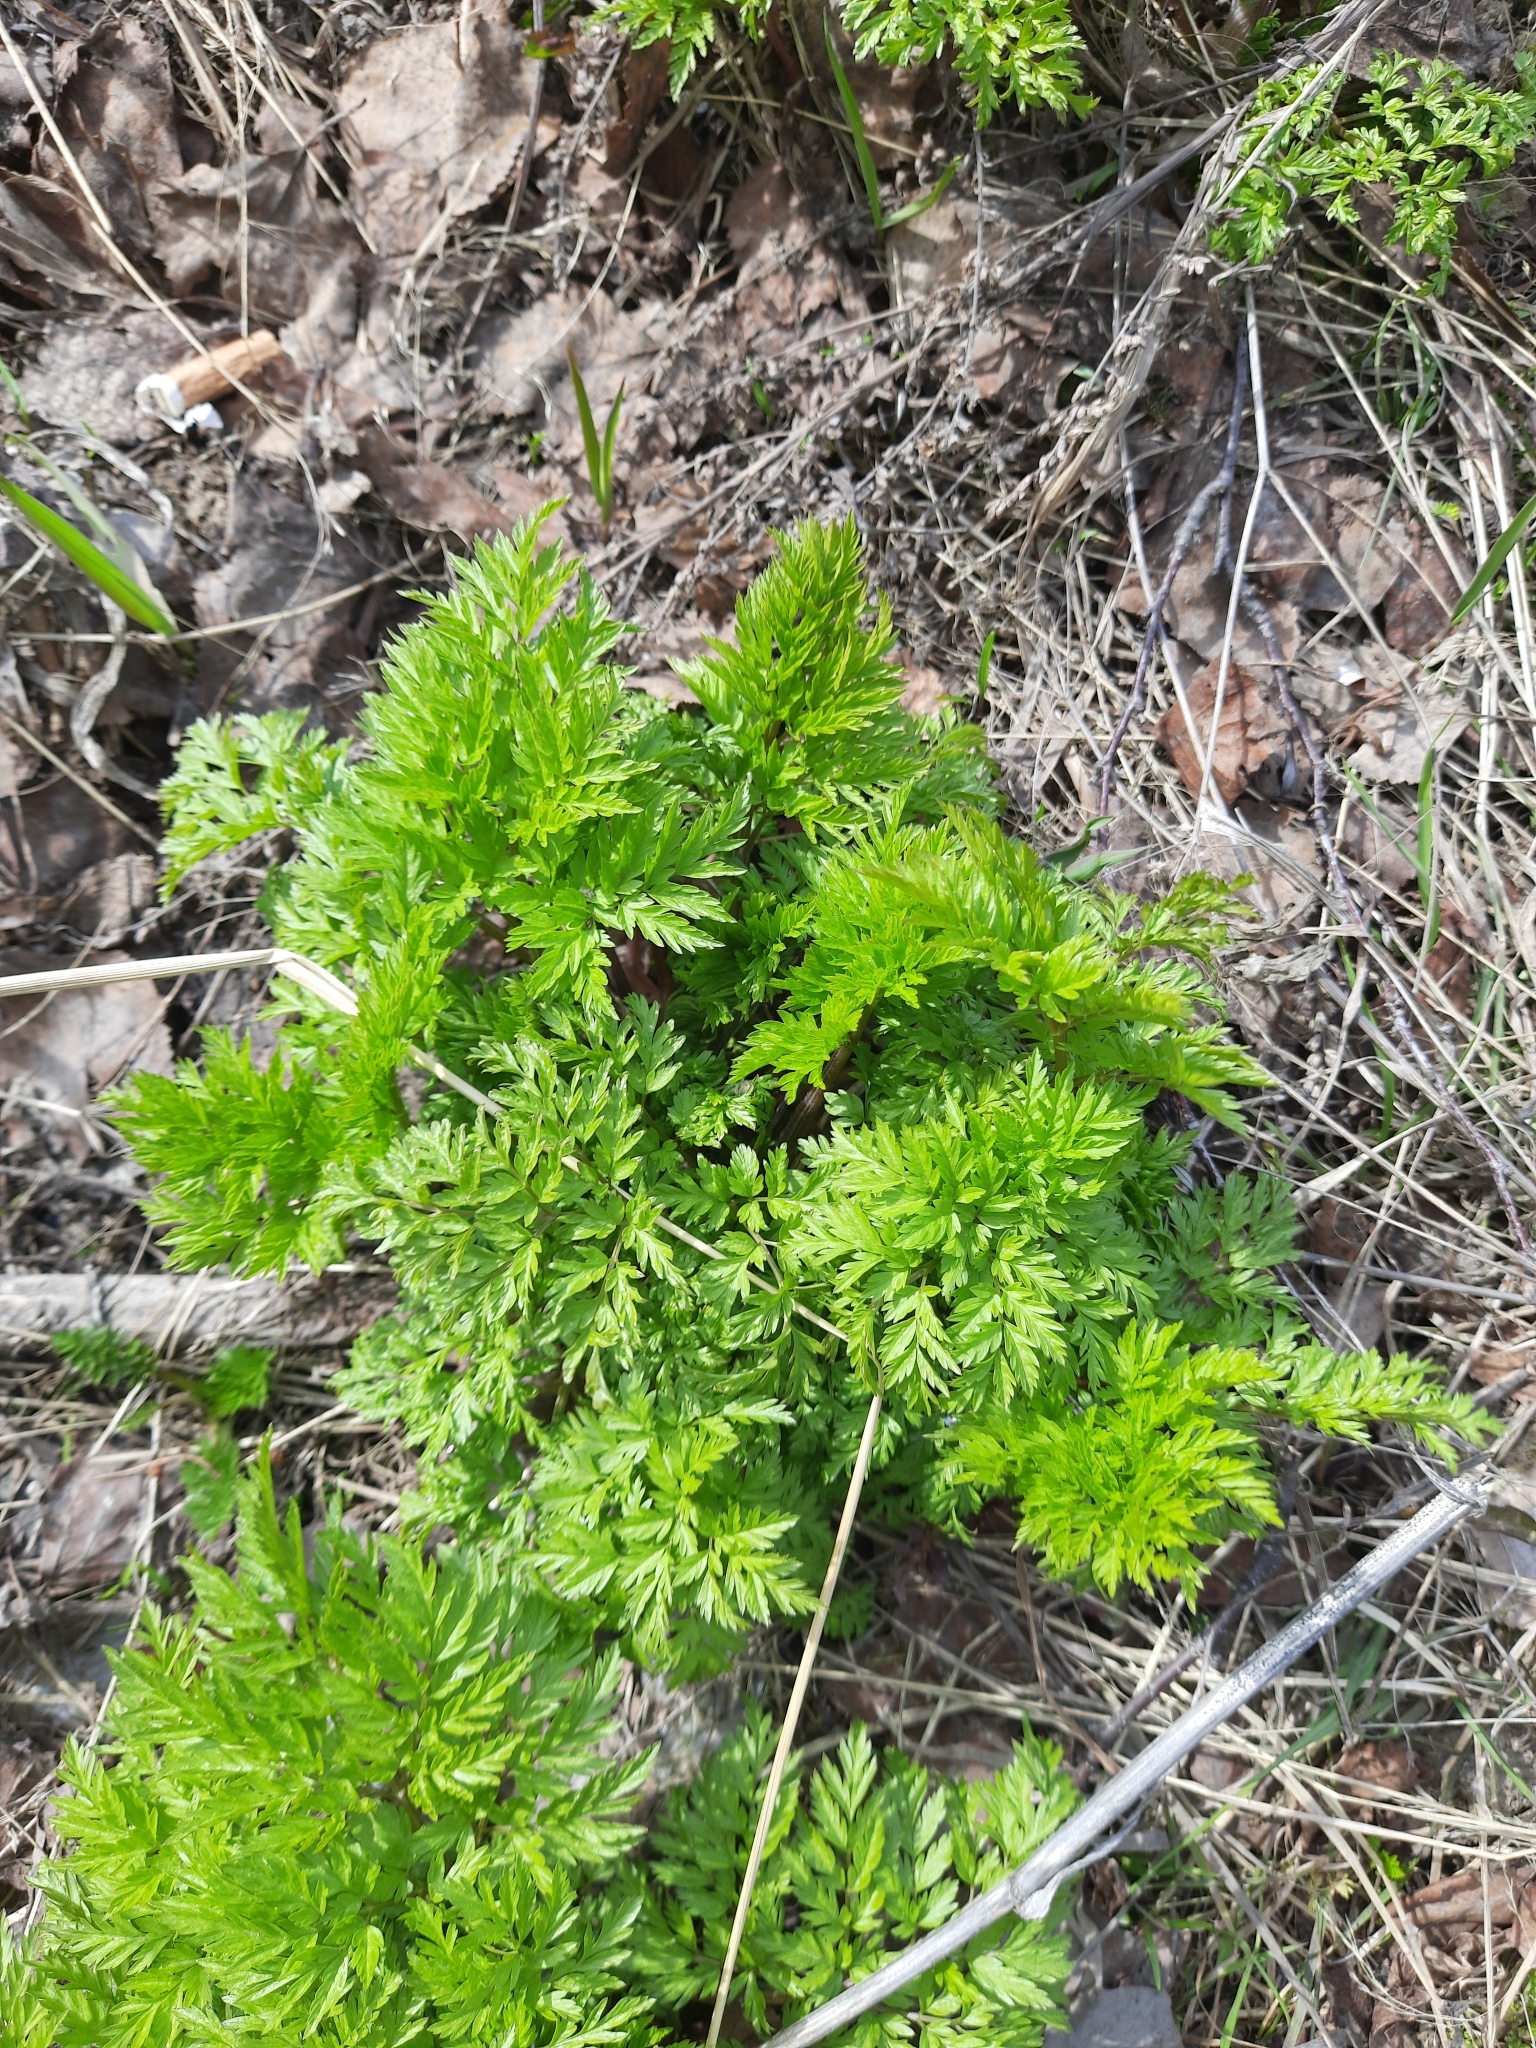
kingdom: Plantae
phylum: Tracheophyta
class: Magnoliopsida
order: Apiales
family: Apiaceae
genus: Anthriscus
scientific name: Anthriscus sylvestris
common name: Cow parsley
